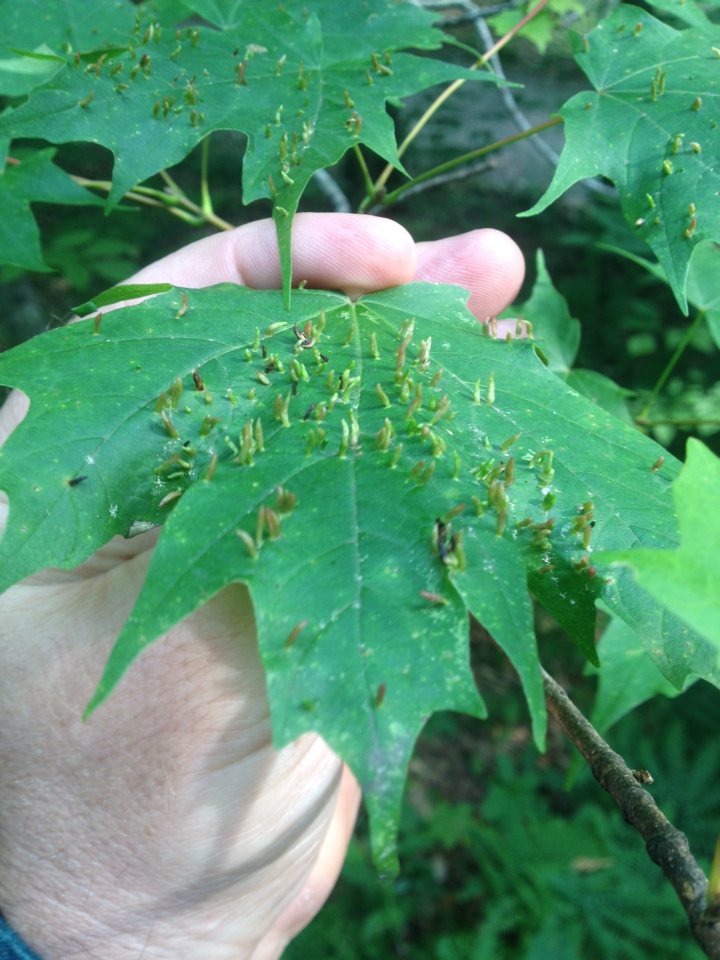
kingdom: Animalia
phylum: Arthropoda
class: Arachnida
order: Trombidiformes
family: Eriophyidae
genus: Vasates
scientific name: Vasates aceriscrumena
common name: Maple spindle gall mite
